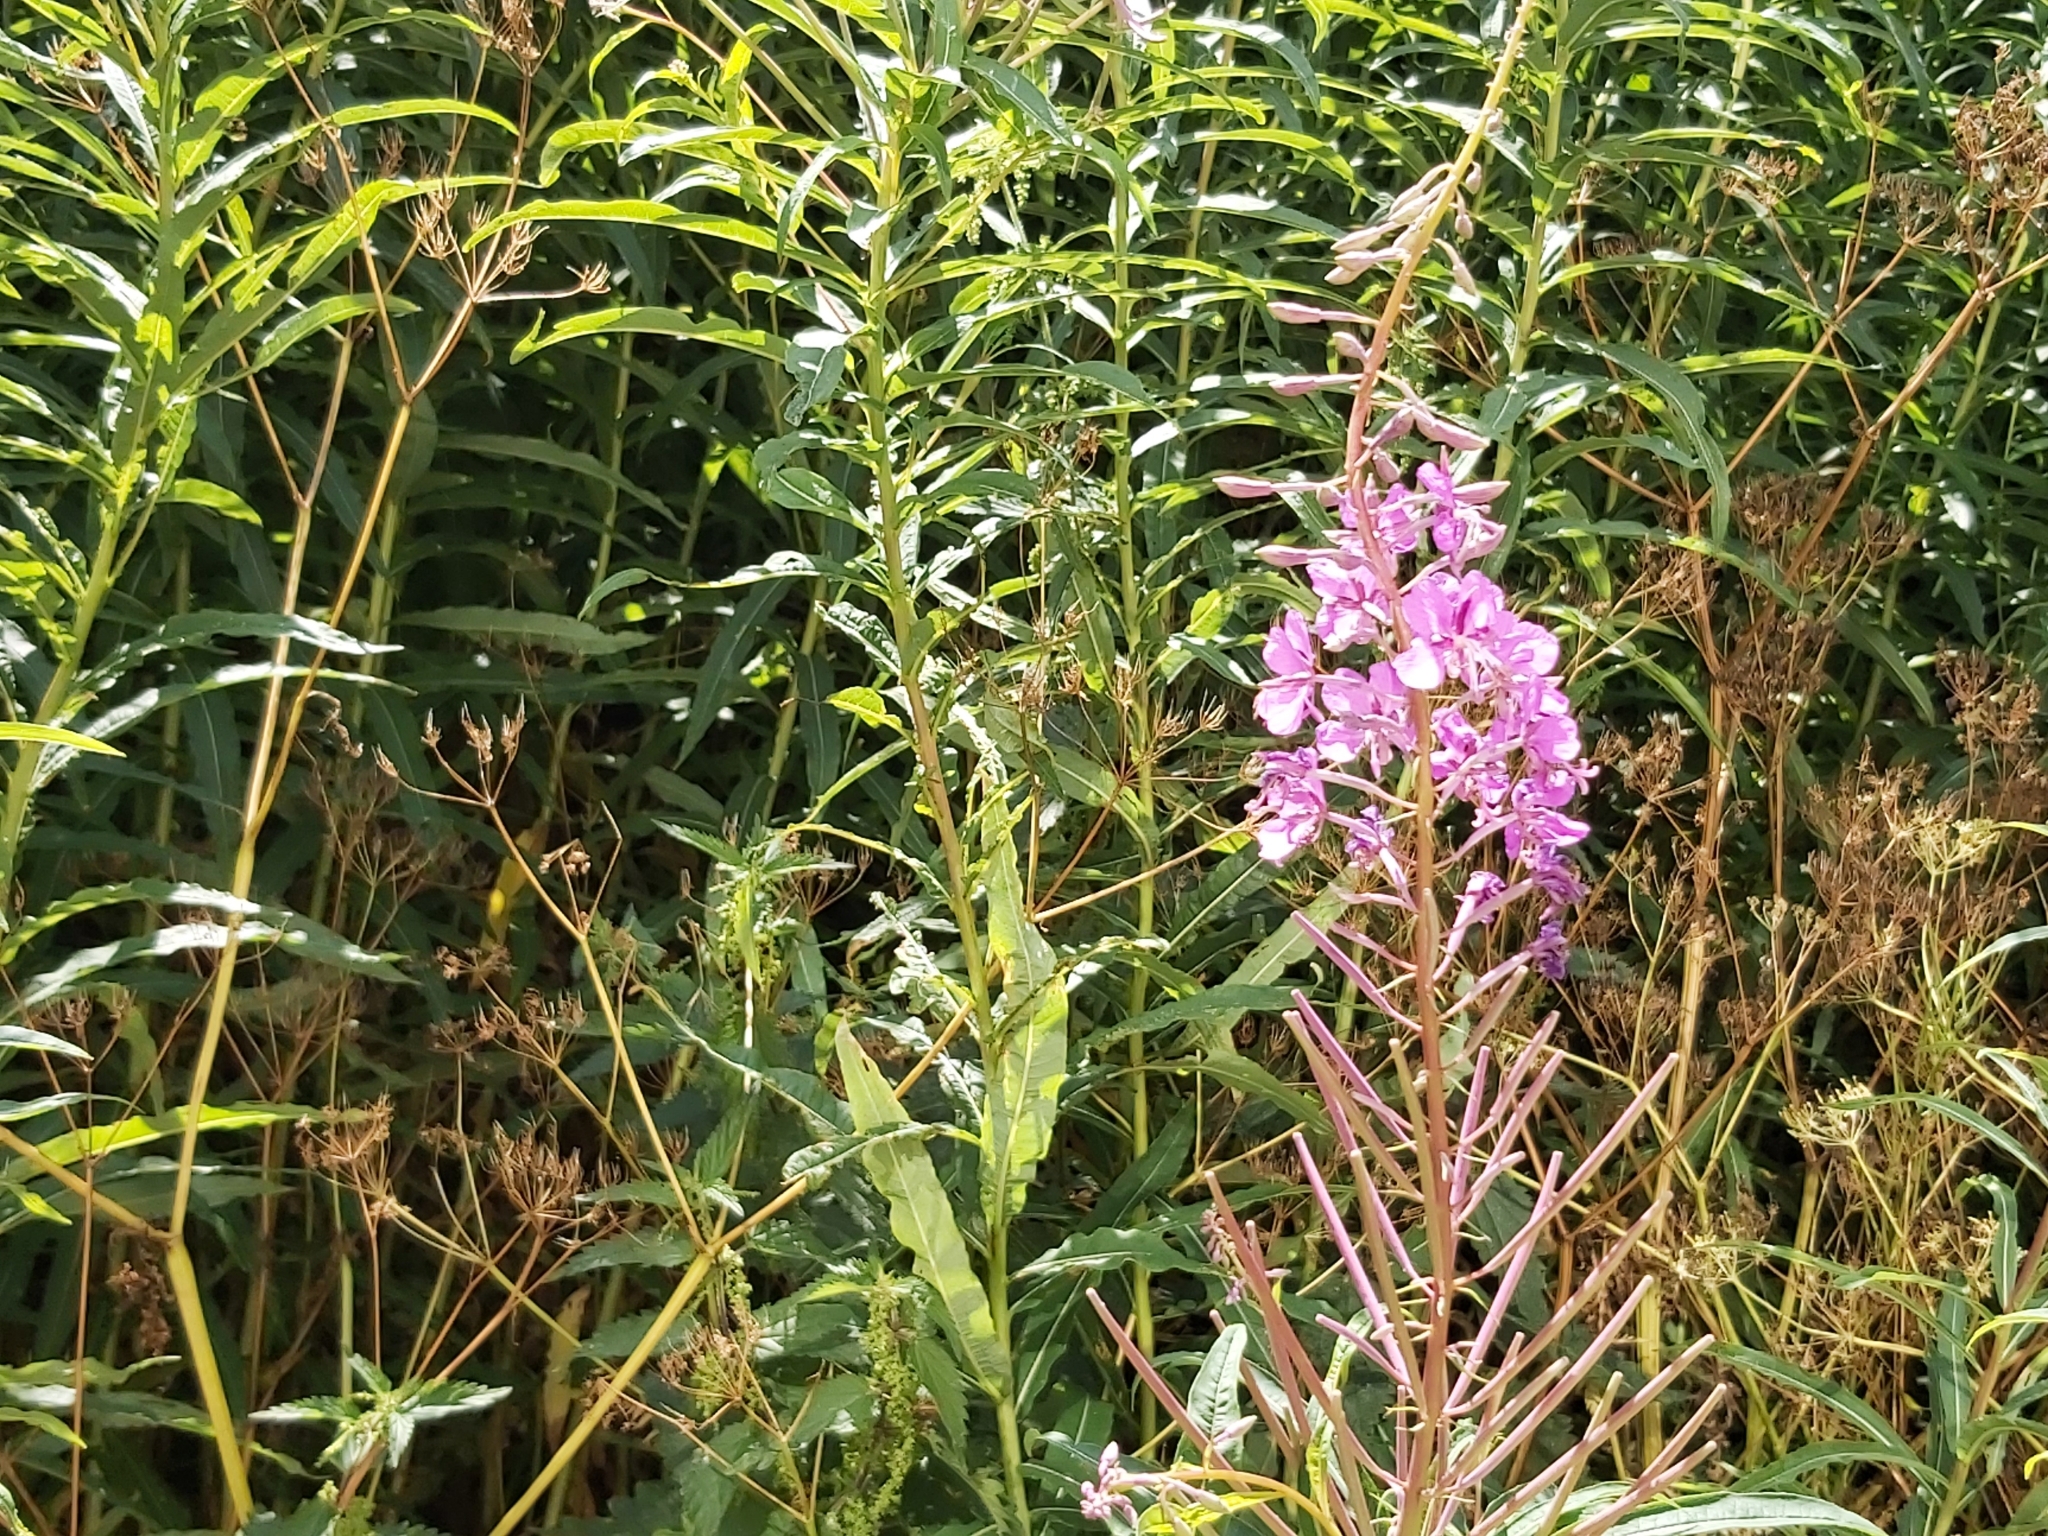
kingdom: Plantae
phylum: Tracheophyta
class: Magnoliopsida
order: Myrtales
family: Onagraceae
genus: Chamaenerion
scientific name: Chamaenerion angustifolium
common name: Fireweed
